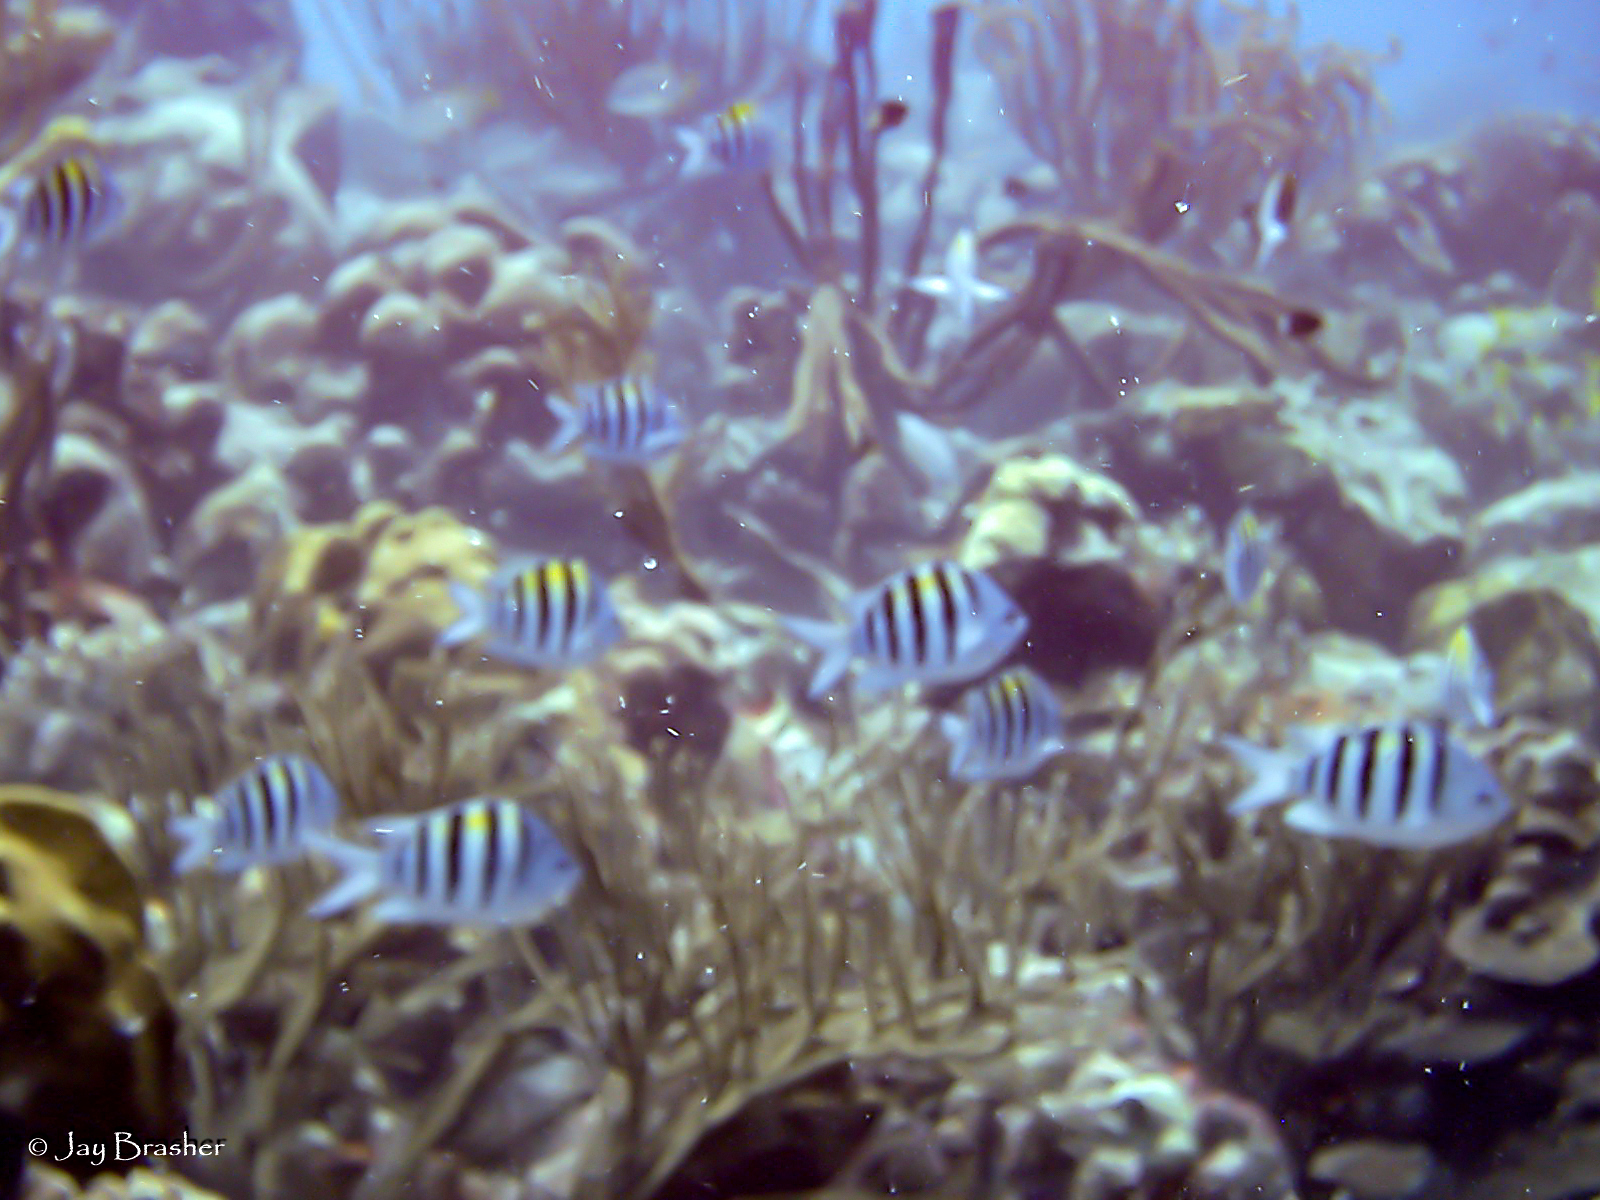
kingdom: Animalia
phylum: Chordata
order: Perciformes
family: Pomacentridae
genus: Abudefduf
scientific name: Abudefduf saxatilis
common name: Sergeant major
